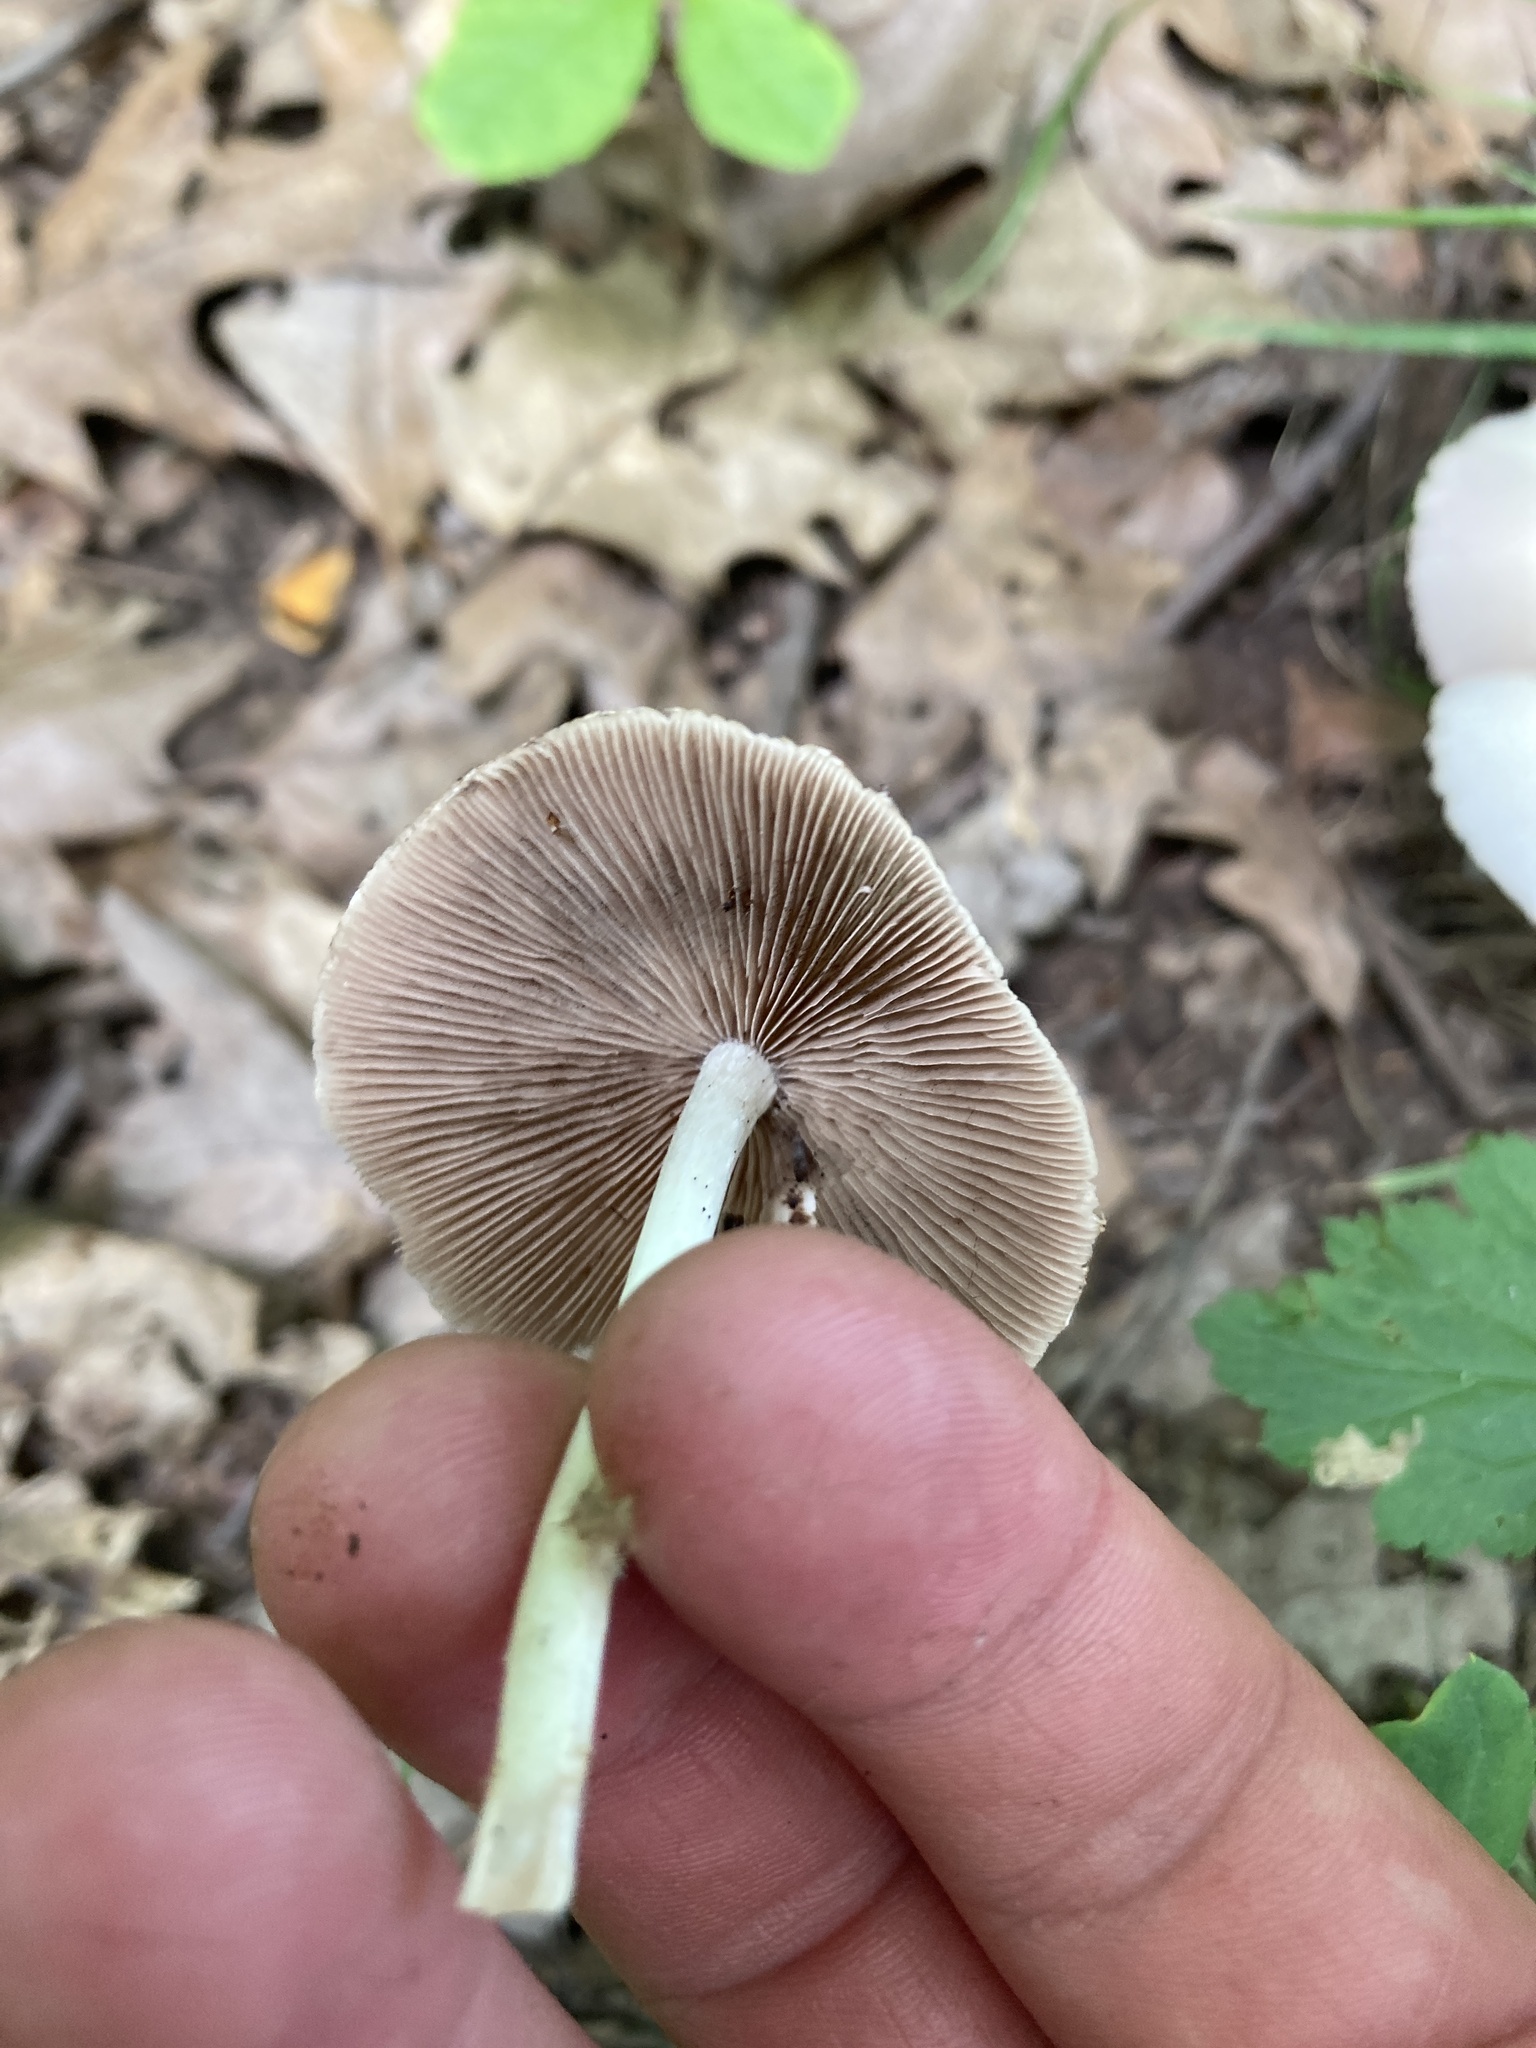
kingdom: Fungi
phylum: Basidiomycota
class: Agaricomycetes
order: Agaricales
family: Psathyrellaceae
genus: Candolleomyces
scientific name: Candolleomyces candolleanus
